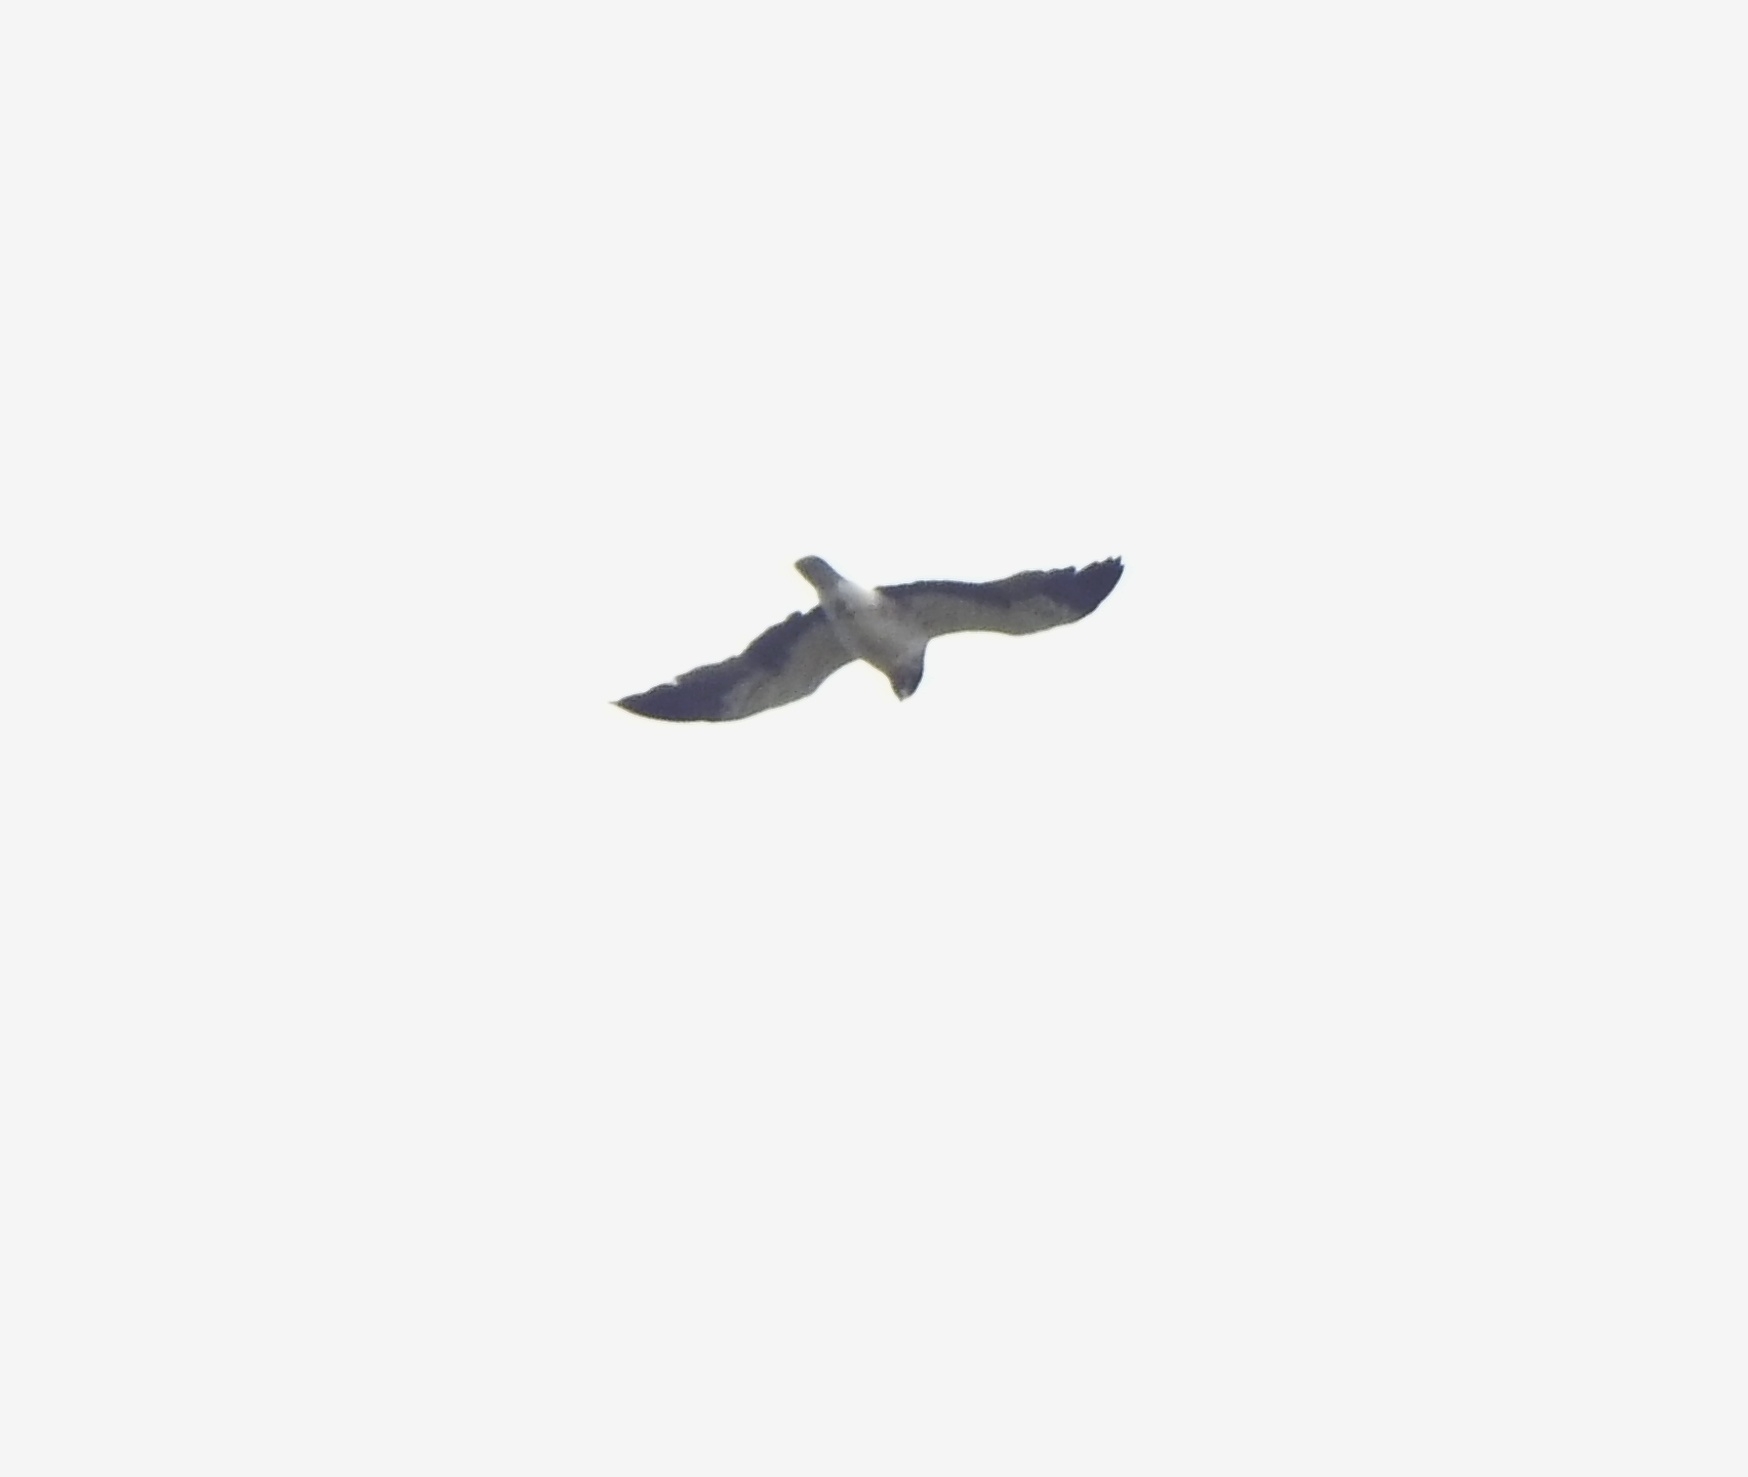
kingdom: Animalia
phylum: Chordata
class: Aves
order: Accipitriformes
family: Accipitridae
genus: Hieraaetus
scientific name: Hieraaetus pennatus
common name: Booted eagle
